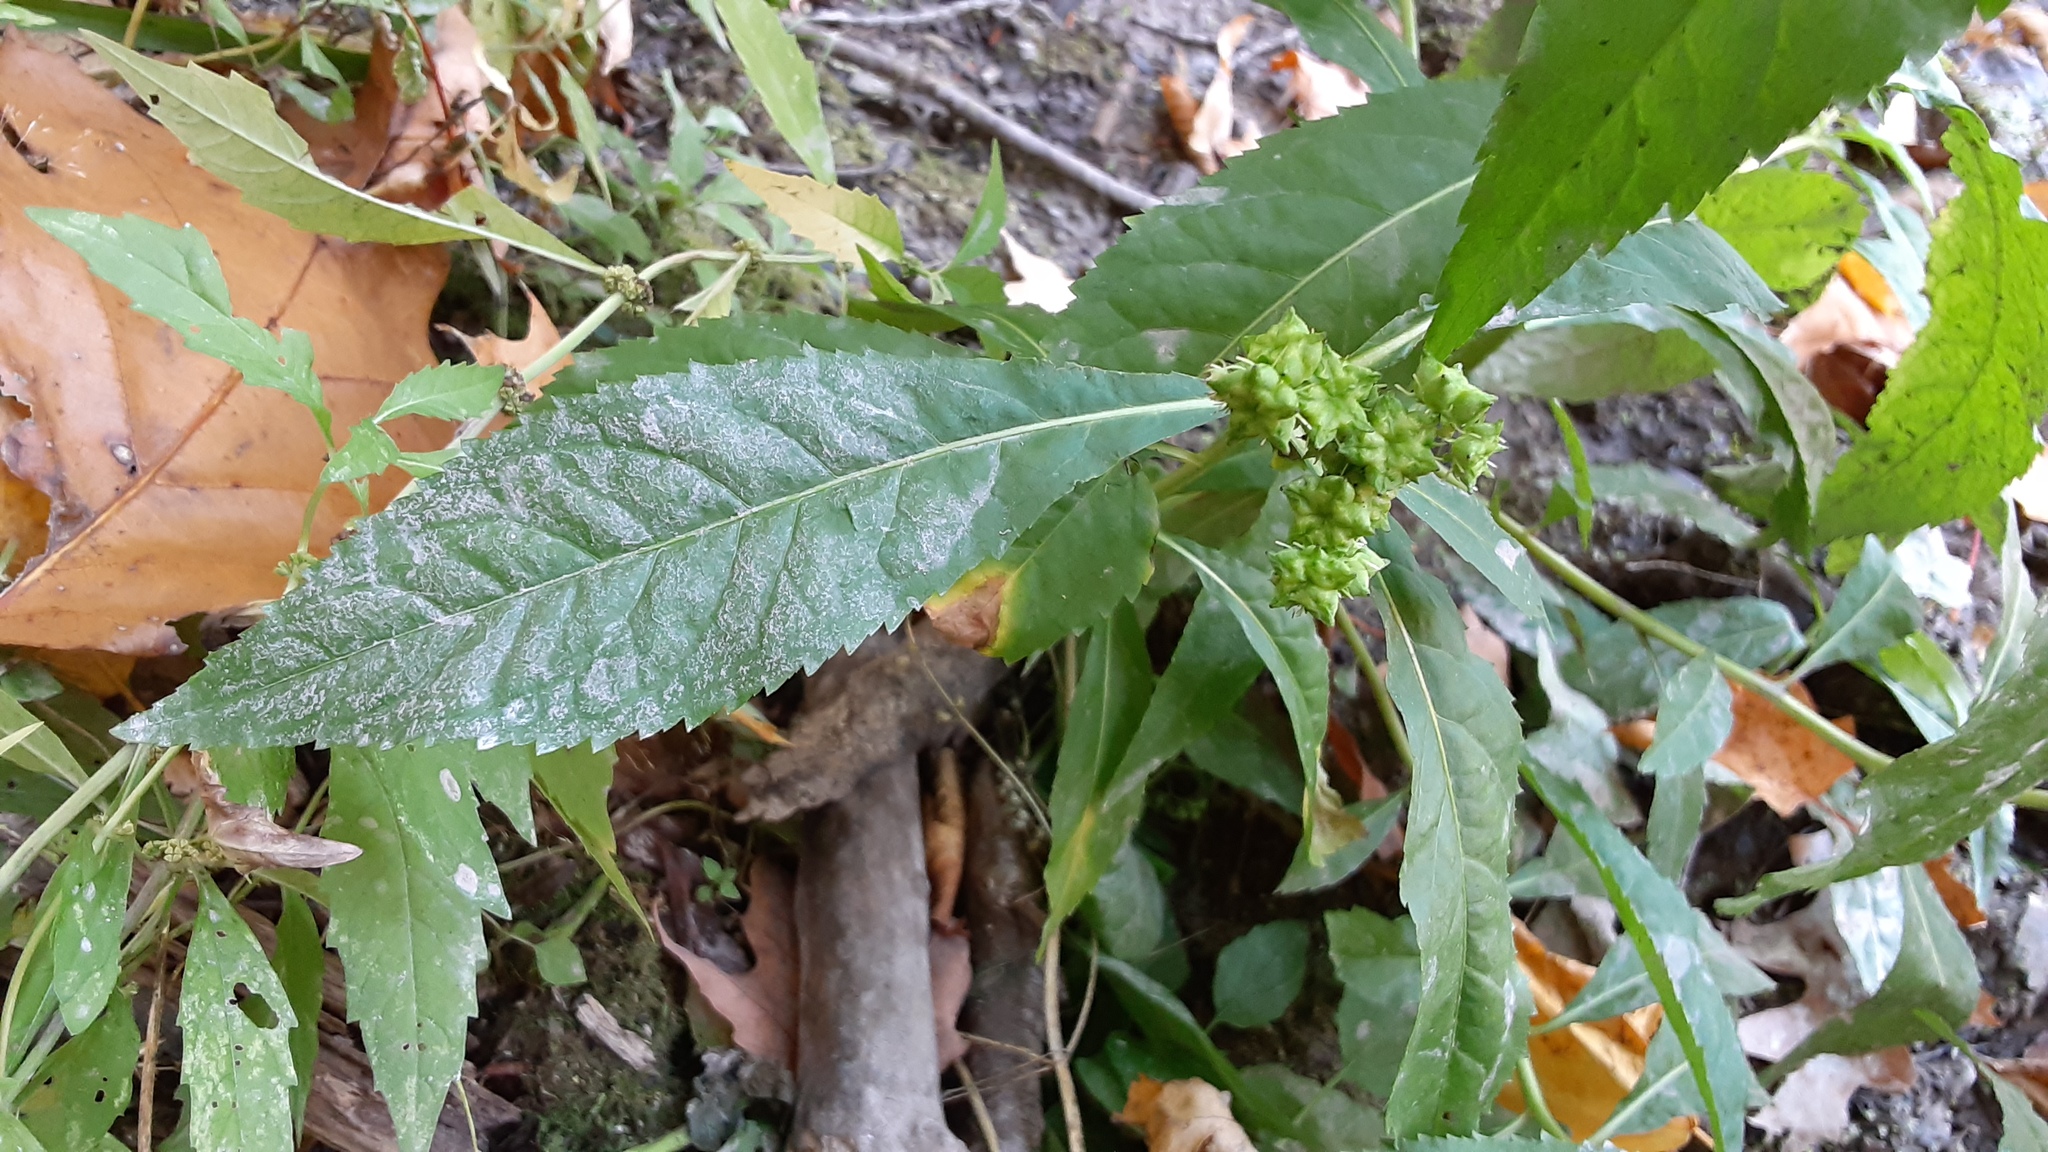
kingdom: Plantae
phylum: Tracheophyta
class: Magnoliopsida
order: Saxifragales
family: Penthoraceae
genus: Penthorum
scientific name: Penthorum sedoides
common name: Ditch stonecrop
